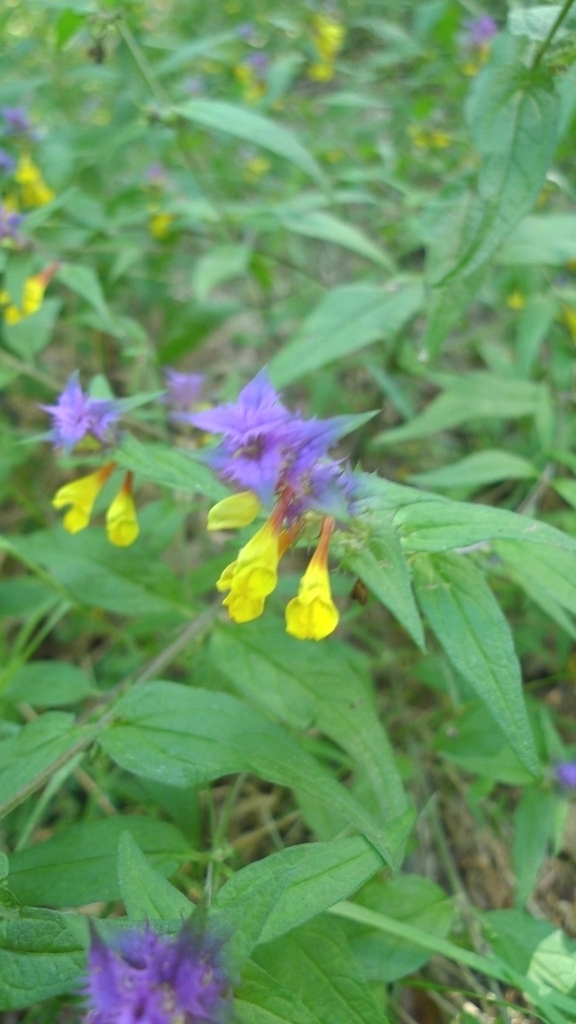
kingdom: Plantae
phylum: Tracheophyta
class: Magnoliopsida
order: Lamiales
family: Orobanchaceae
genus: Melampyrum
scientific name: Melampyrum nemorosum
